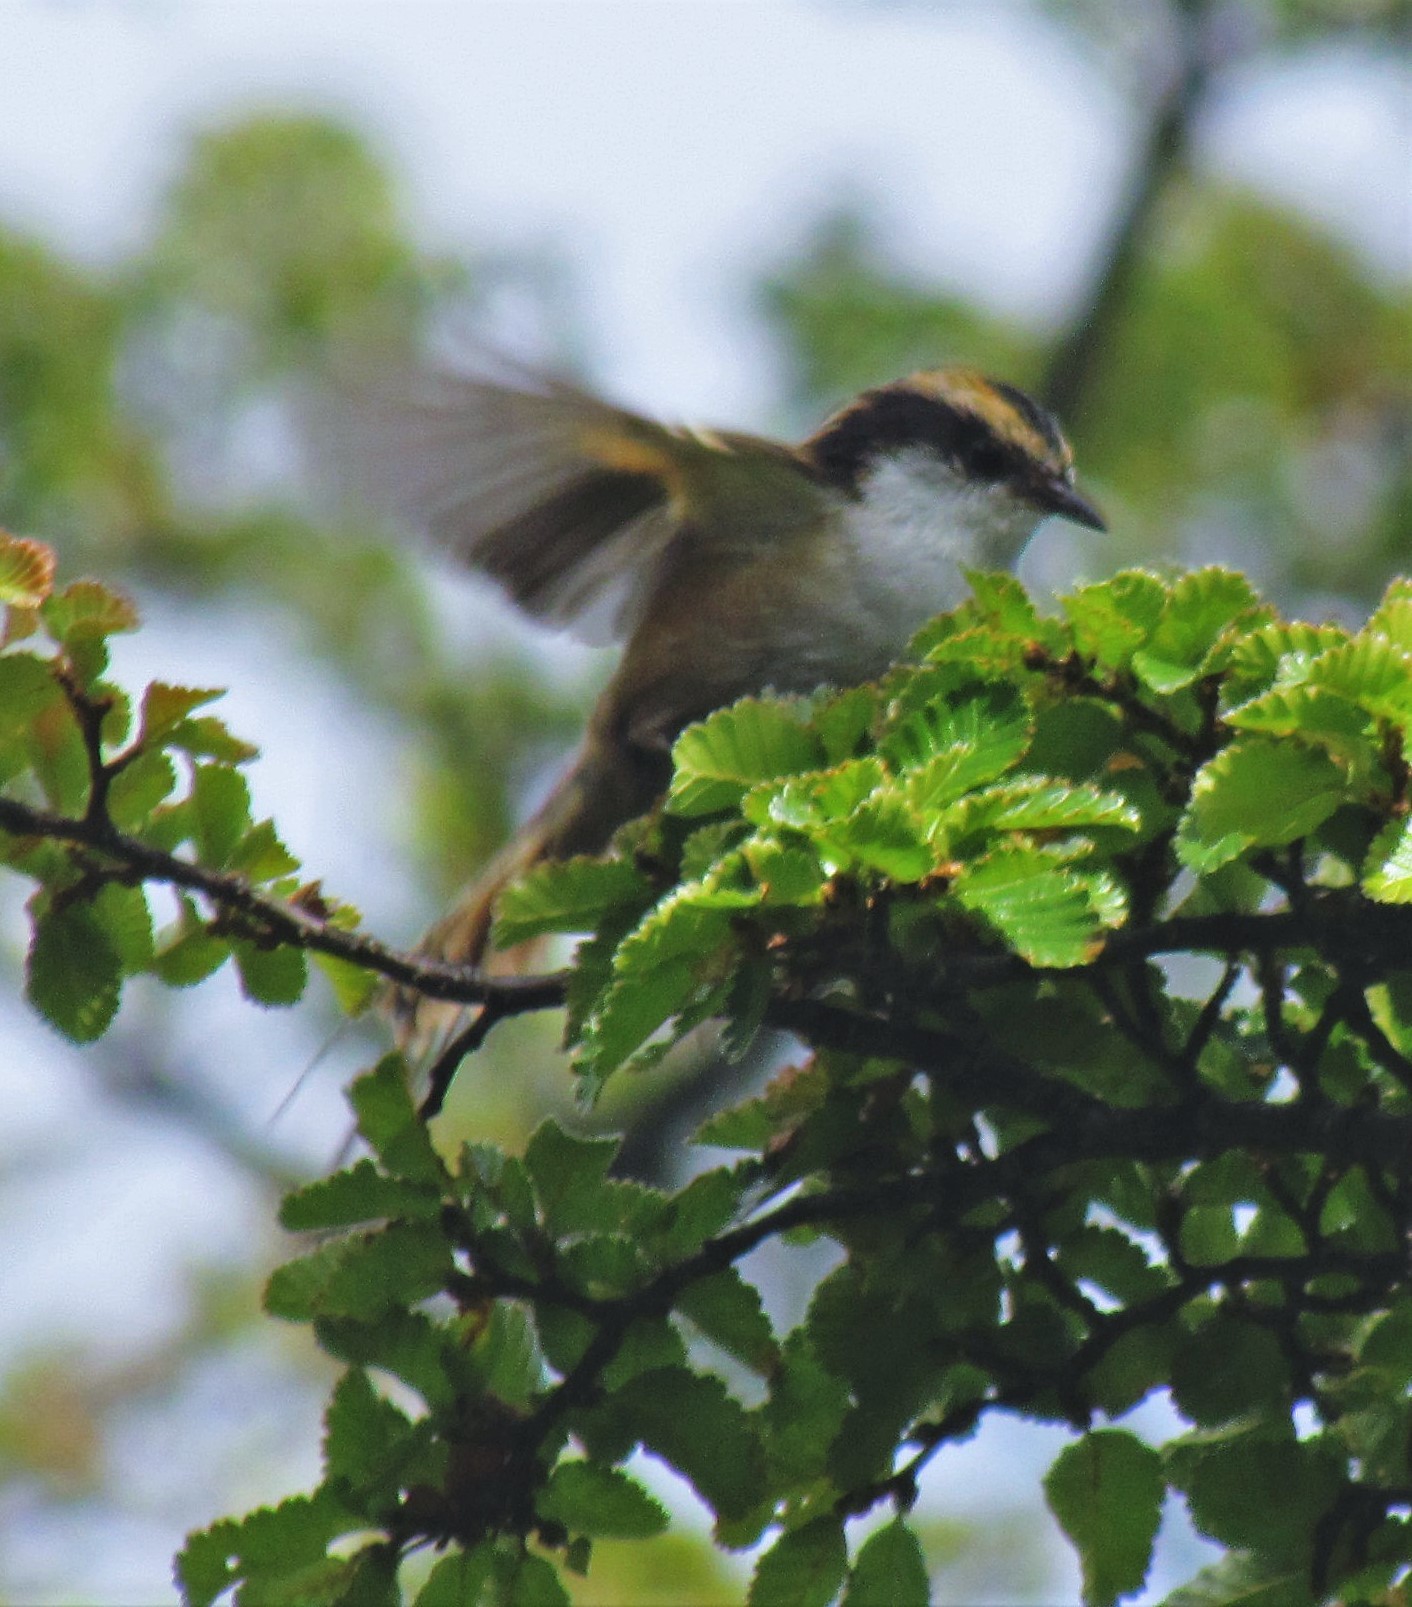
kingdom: Animalia
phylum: Chordata
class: Aves
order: Passeriformes
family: Furnariidae
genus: Aphrastura
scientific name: Aphrastura spinicauda
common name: Thorn-tailed rayadito
